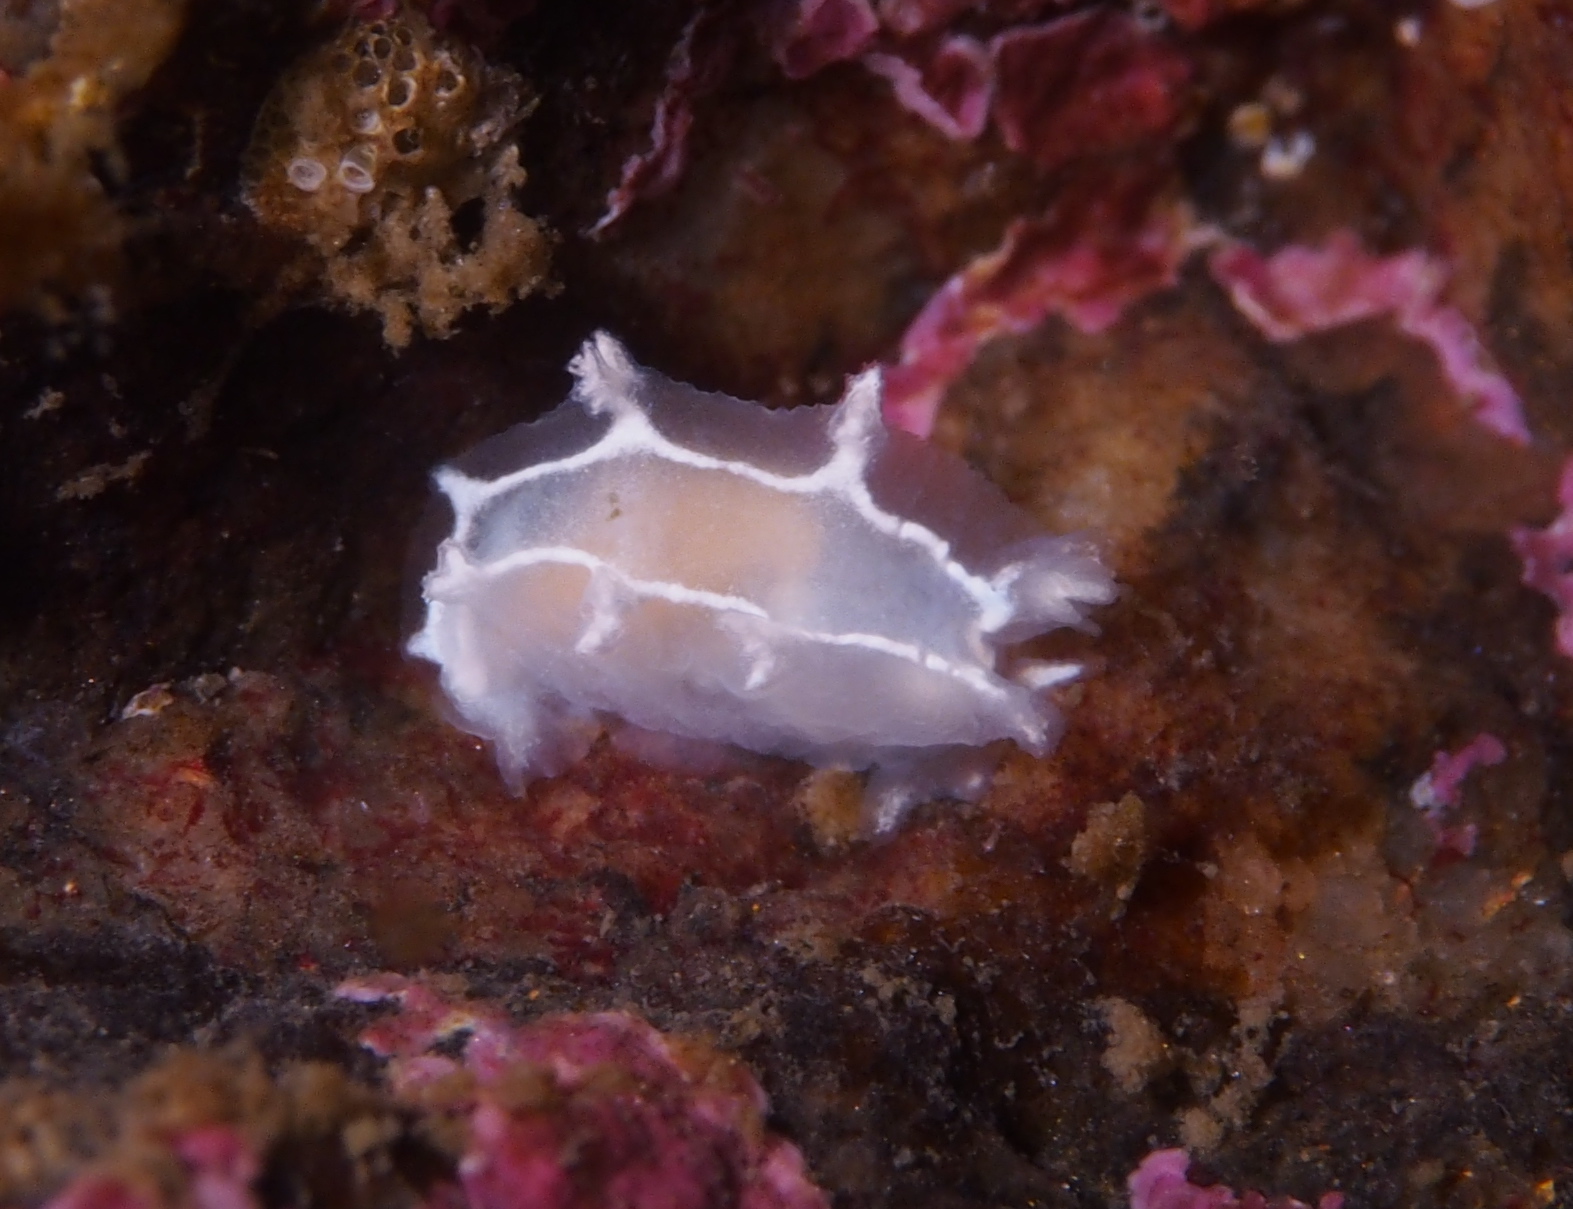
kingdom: Animalia
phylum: Mollusca
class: Gastropoda
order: Nudibranchia
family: Tritoniidae
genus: Duvaucelia
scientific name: Duvaucelia lineata
